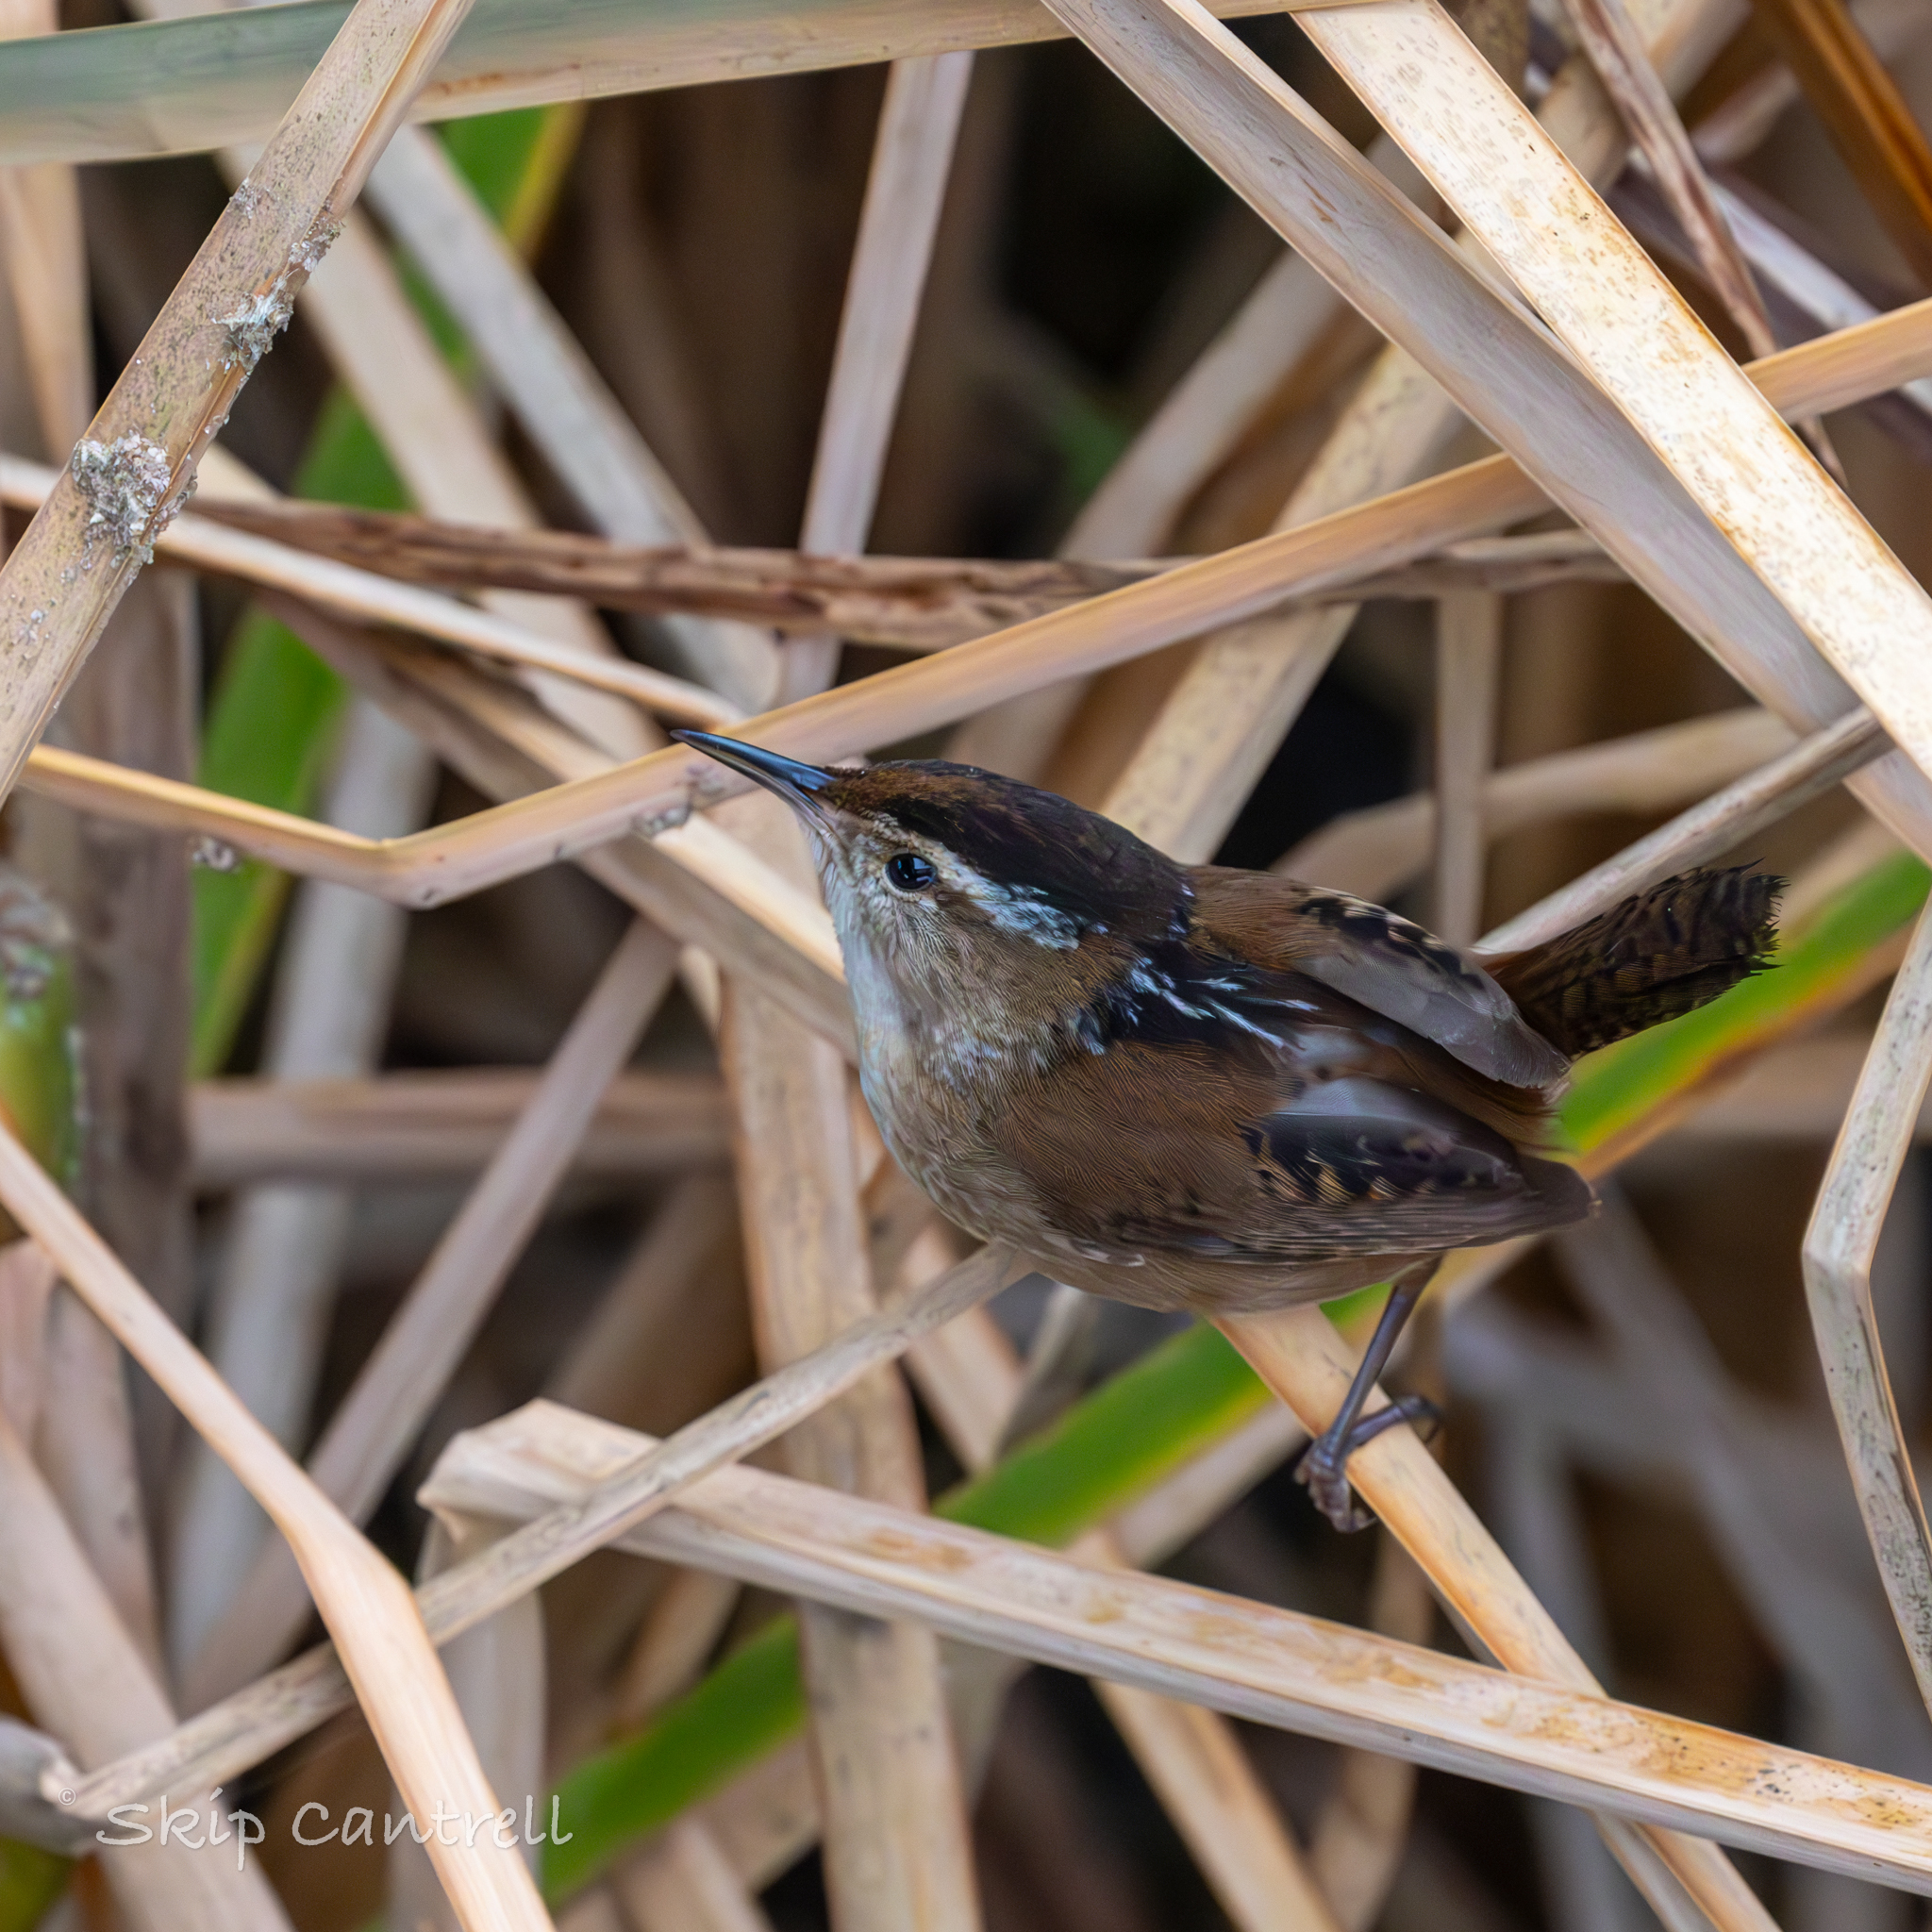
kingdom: Animalia
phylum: Chordata
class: Aves
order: Passeriformes
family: Troglodytidae
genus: Cistothorus
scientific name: Cistothorus palustris
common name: Marsh wren
